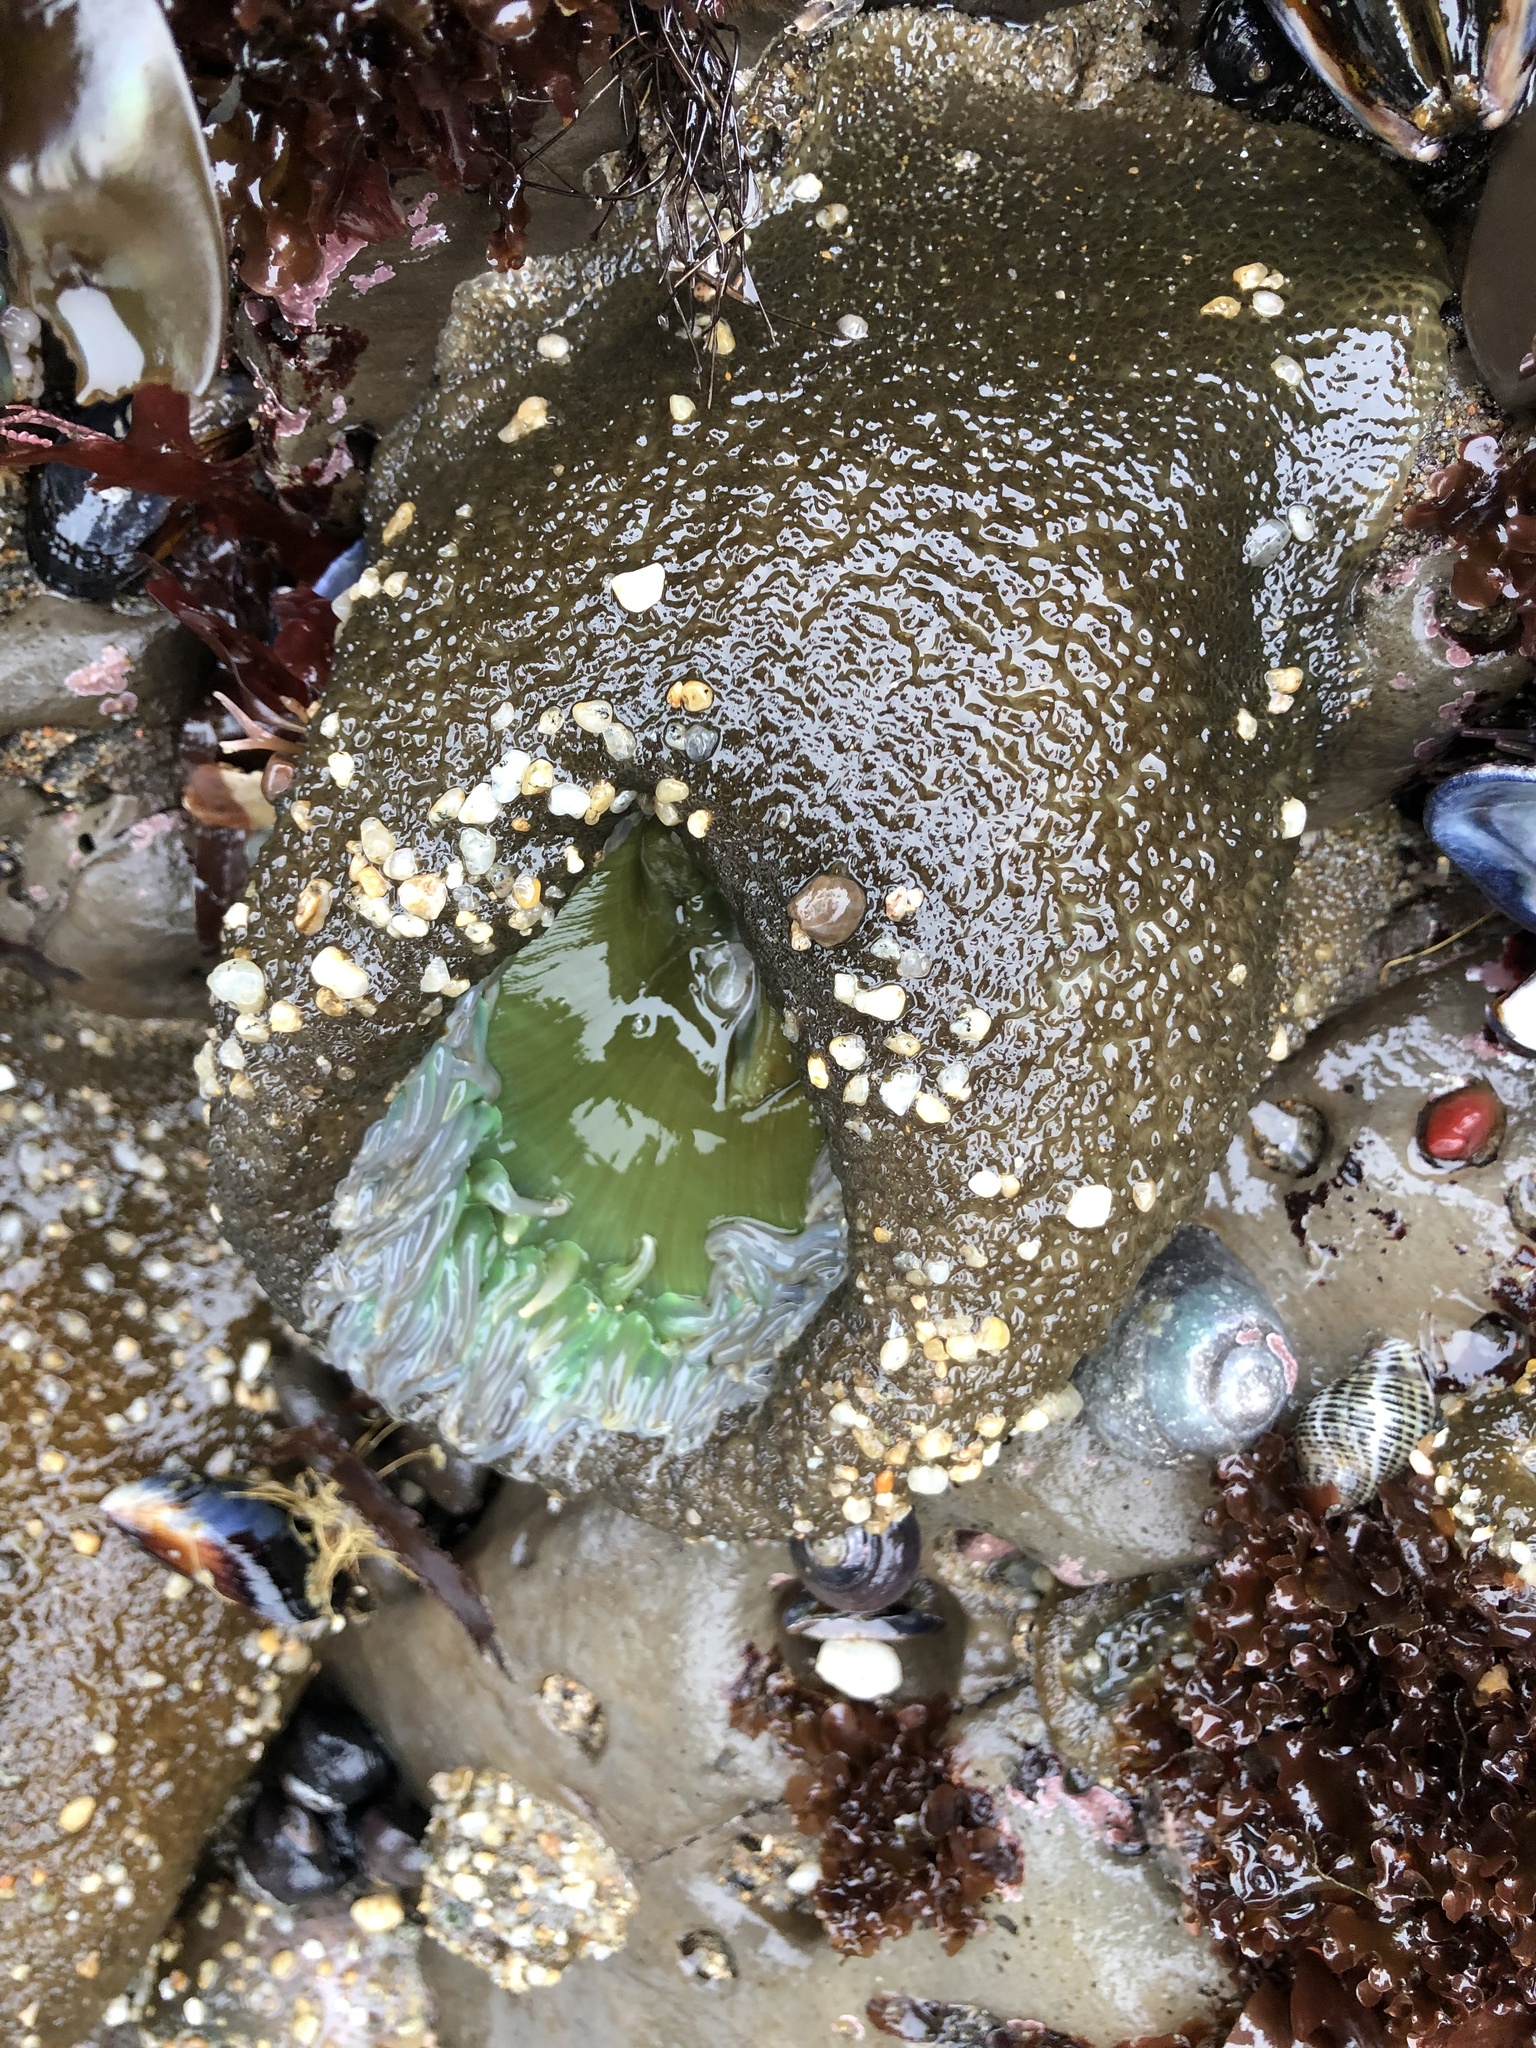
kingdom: Animalia
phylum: Cnidaria
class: Anthozoa
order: Actiniaria
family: Actiniidae
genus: Anthopleura
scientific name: Anthopleura xanthogrammica
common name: Giant green anemone
